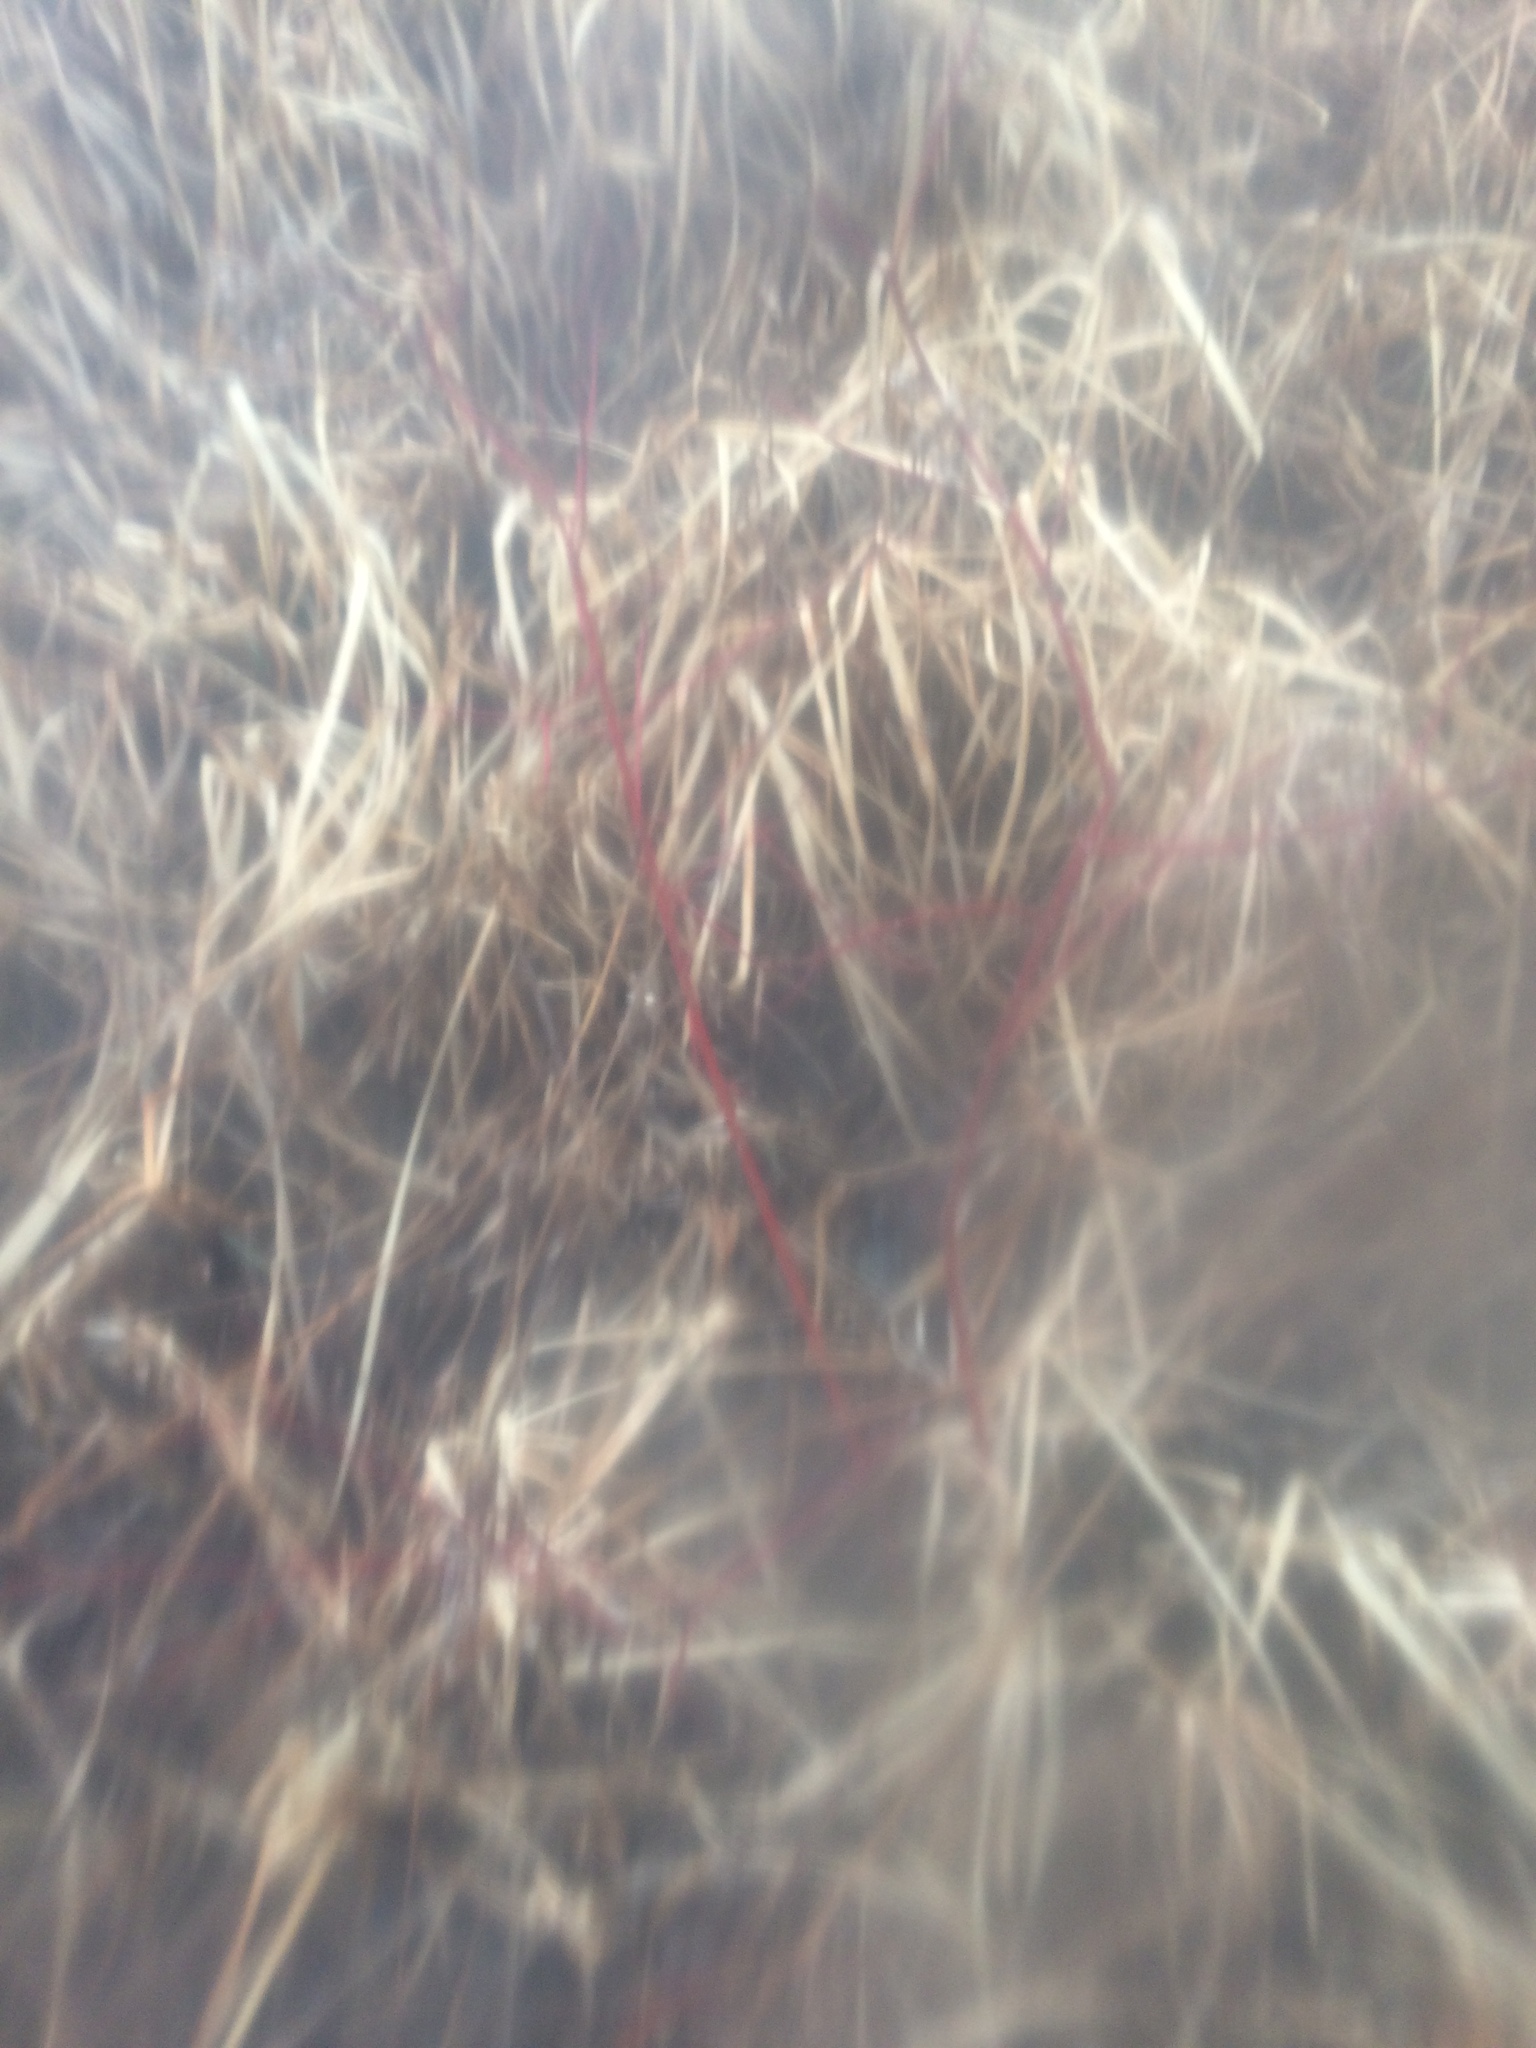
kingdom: Plantae
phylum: Tracheophyta
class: Magnoliopsida
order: Cornales
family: Cornaceae
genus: Cornus
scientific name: Cornus sericea
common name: Red-osier dogwood
